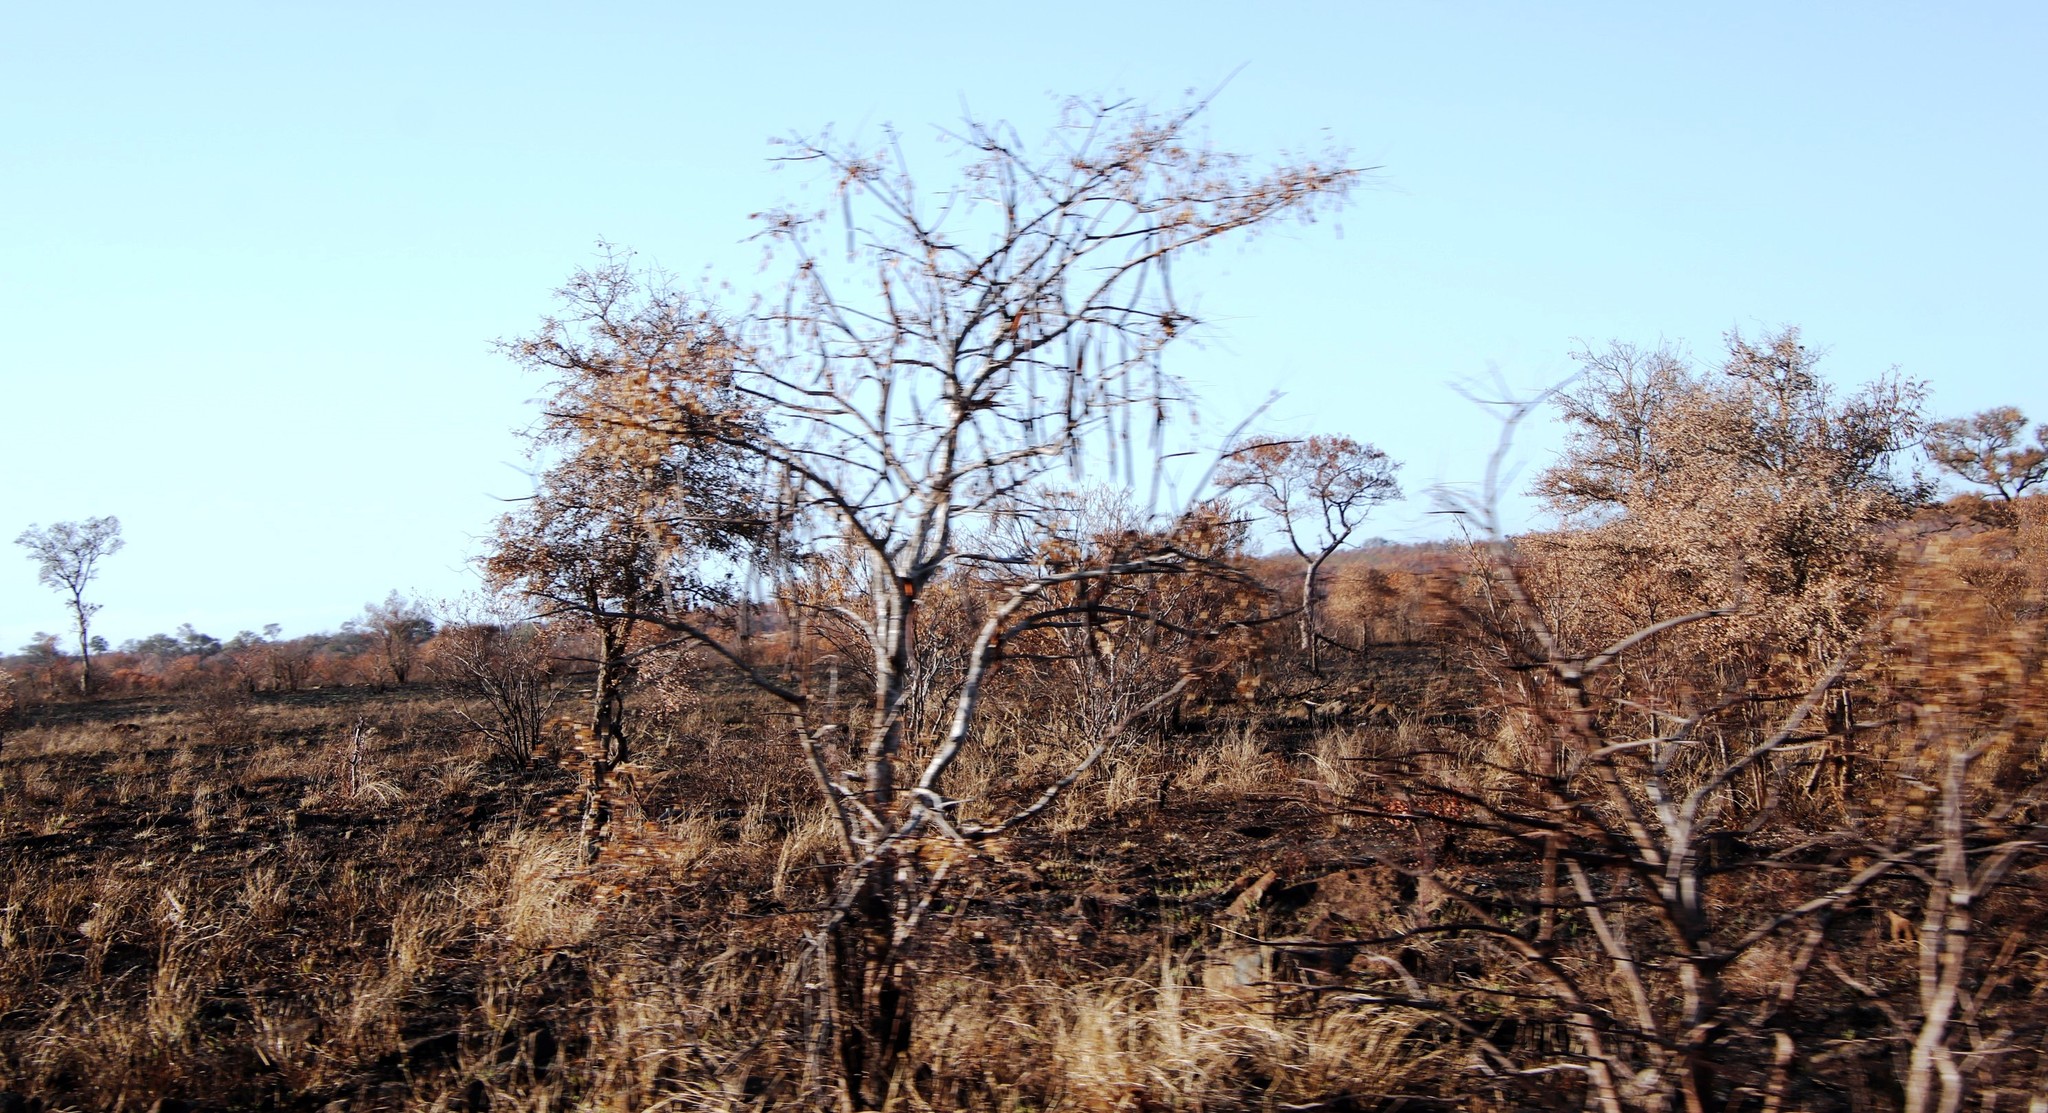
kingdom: Plantae
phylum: Tracheophyta
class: Magnoliopsida
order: Fabales
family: Fabaceae
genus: Cassia
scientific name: Cassia abbreviata
